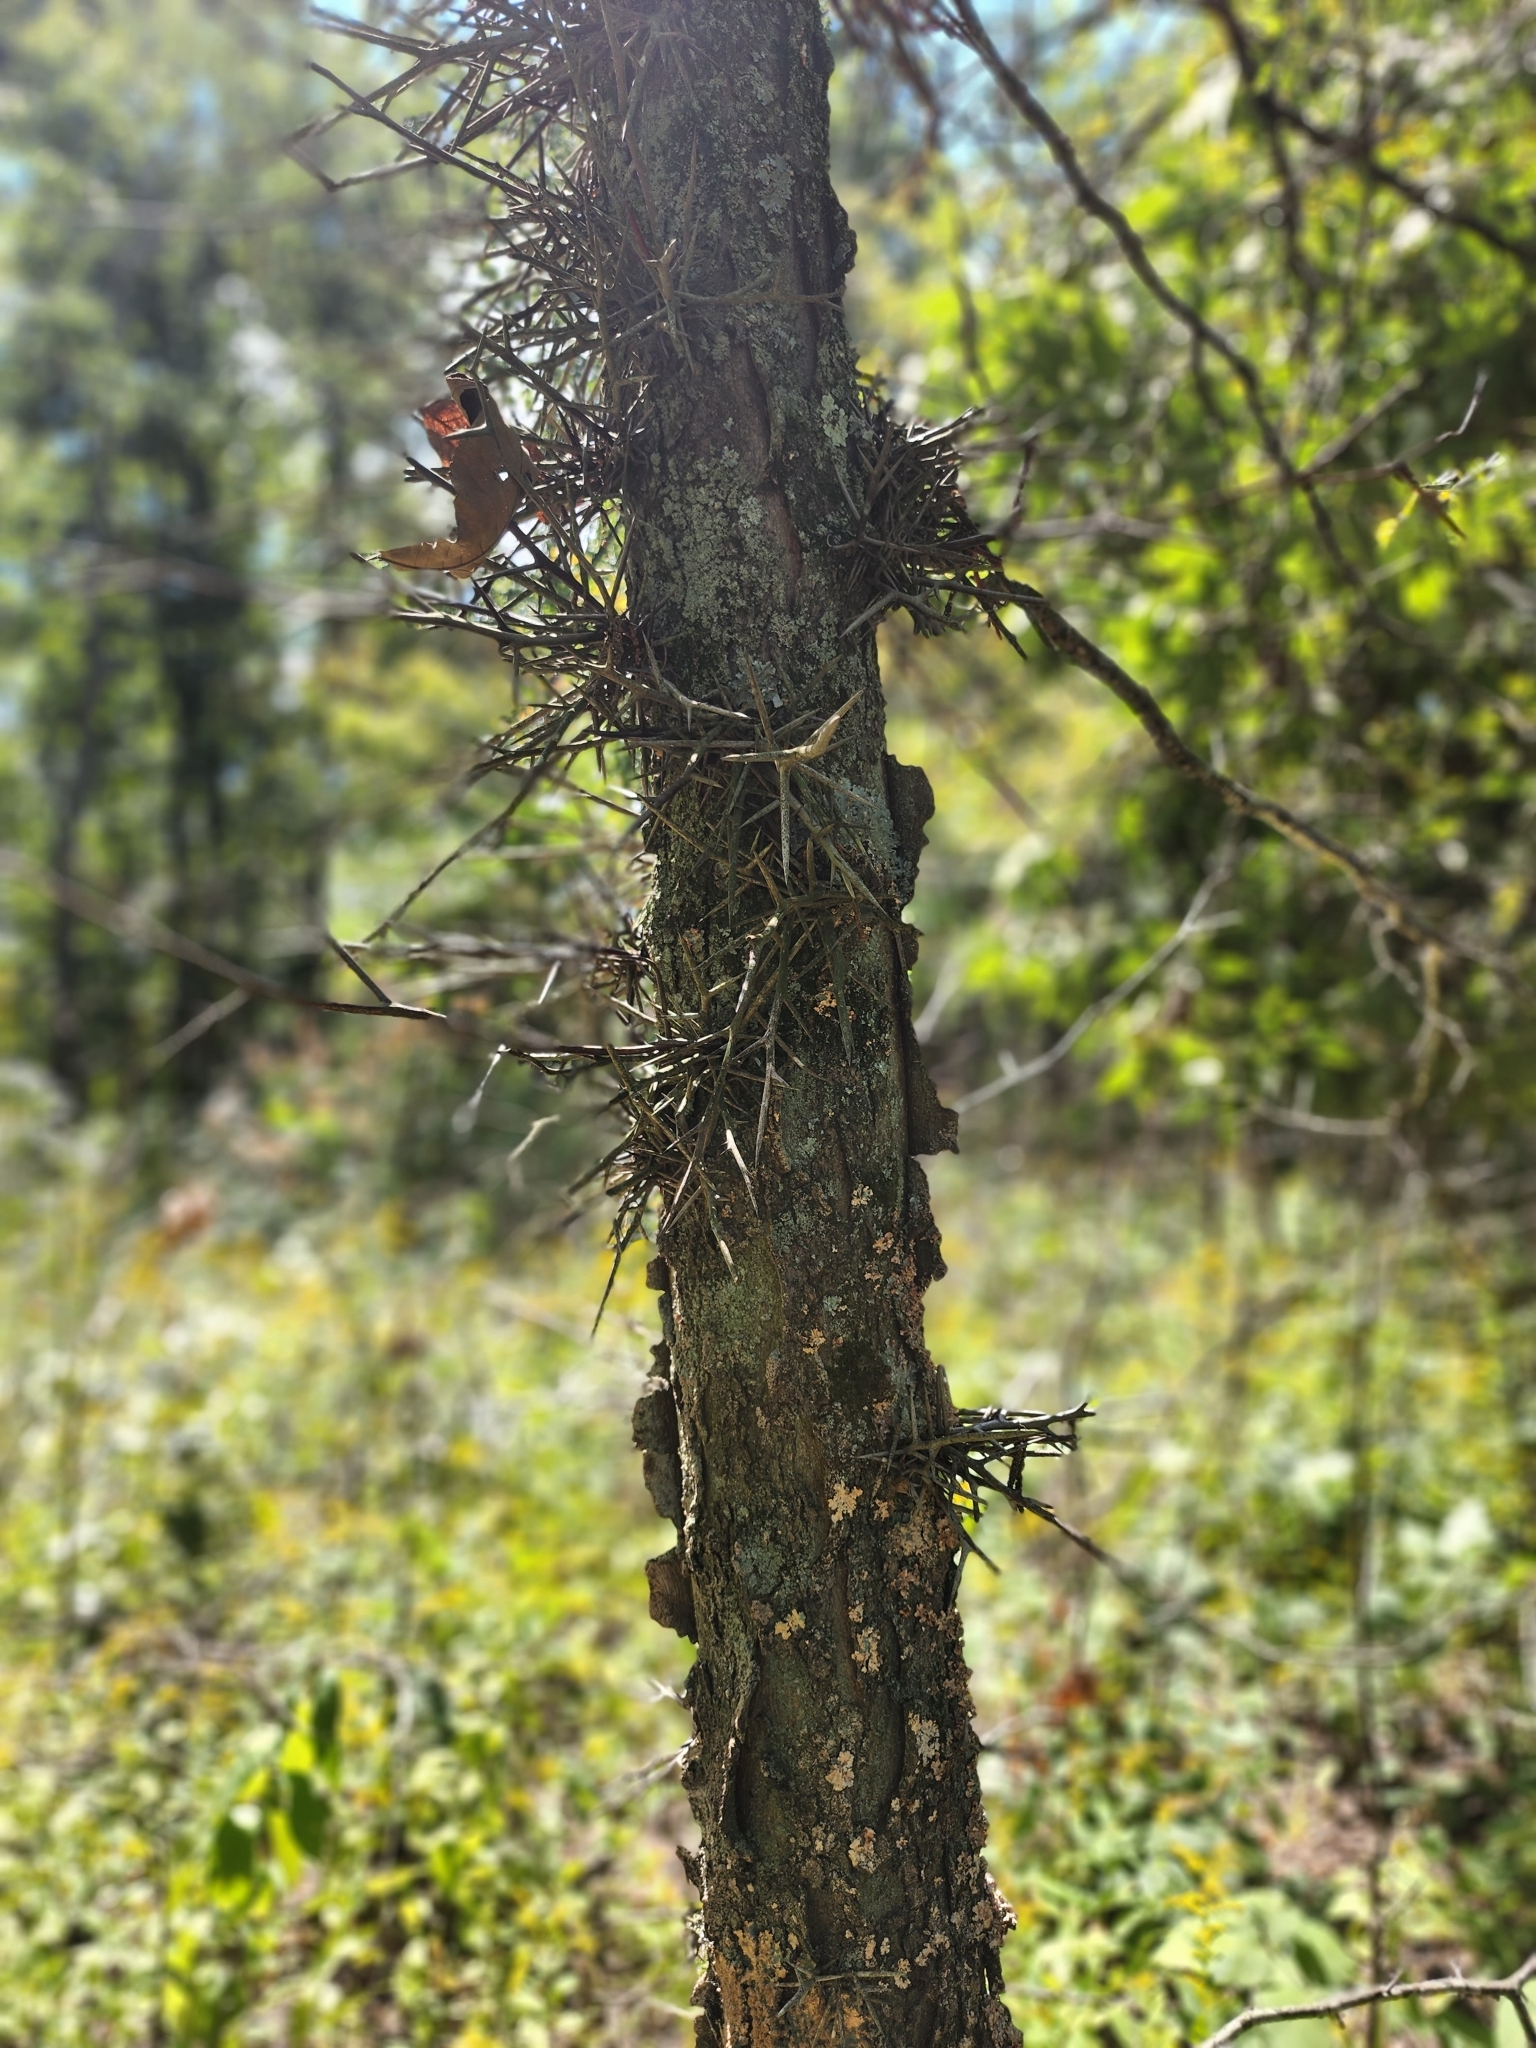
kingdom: Plantae
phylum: Tracheophyta
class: Magnoliopsida
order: Fabales
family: Fabaceae
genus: Gleditsia
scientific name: Gleditsia triacanthos
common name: Common honeylocust
